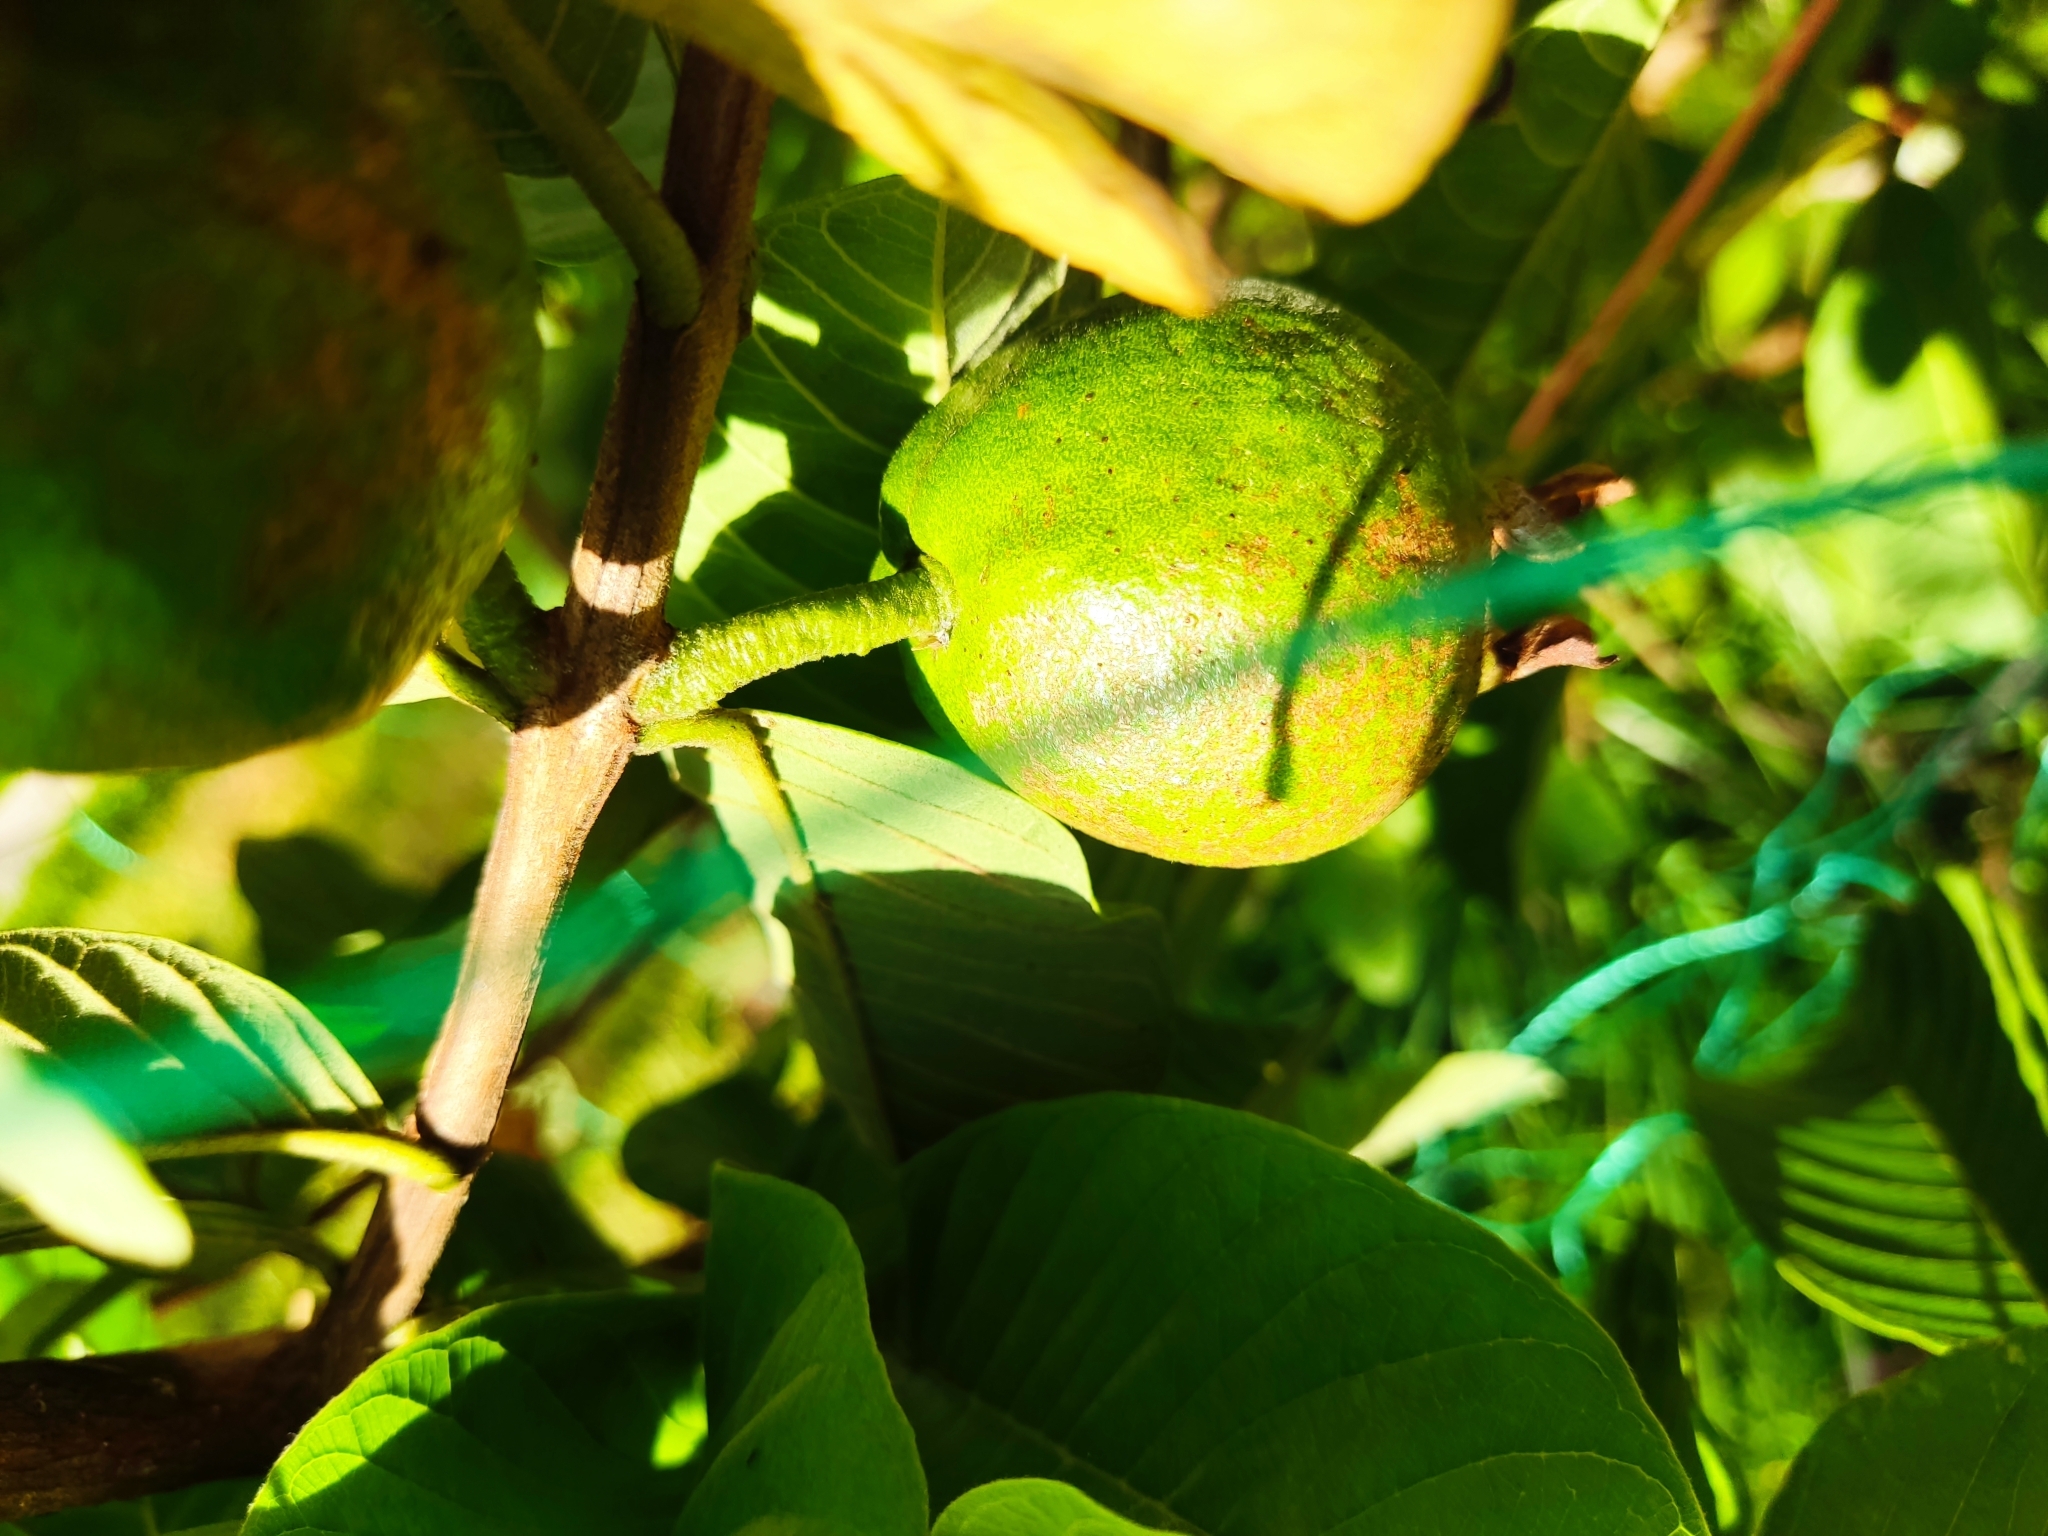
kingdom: Plantae
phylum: Tracheophyta
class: Magnoliopsida
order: Myrtales
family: Myrtaceae
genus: Psidium
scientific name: Psidium guajava
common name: Guava
